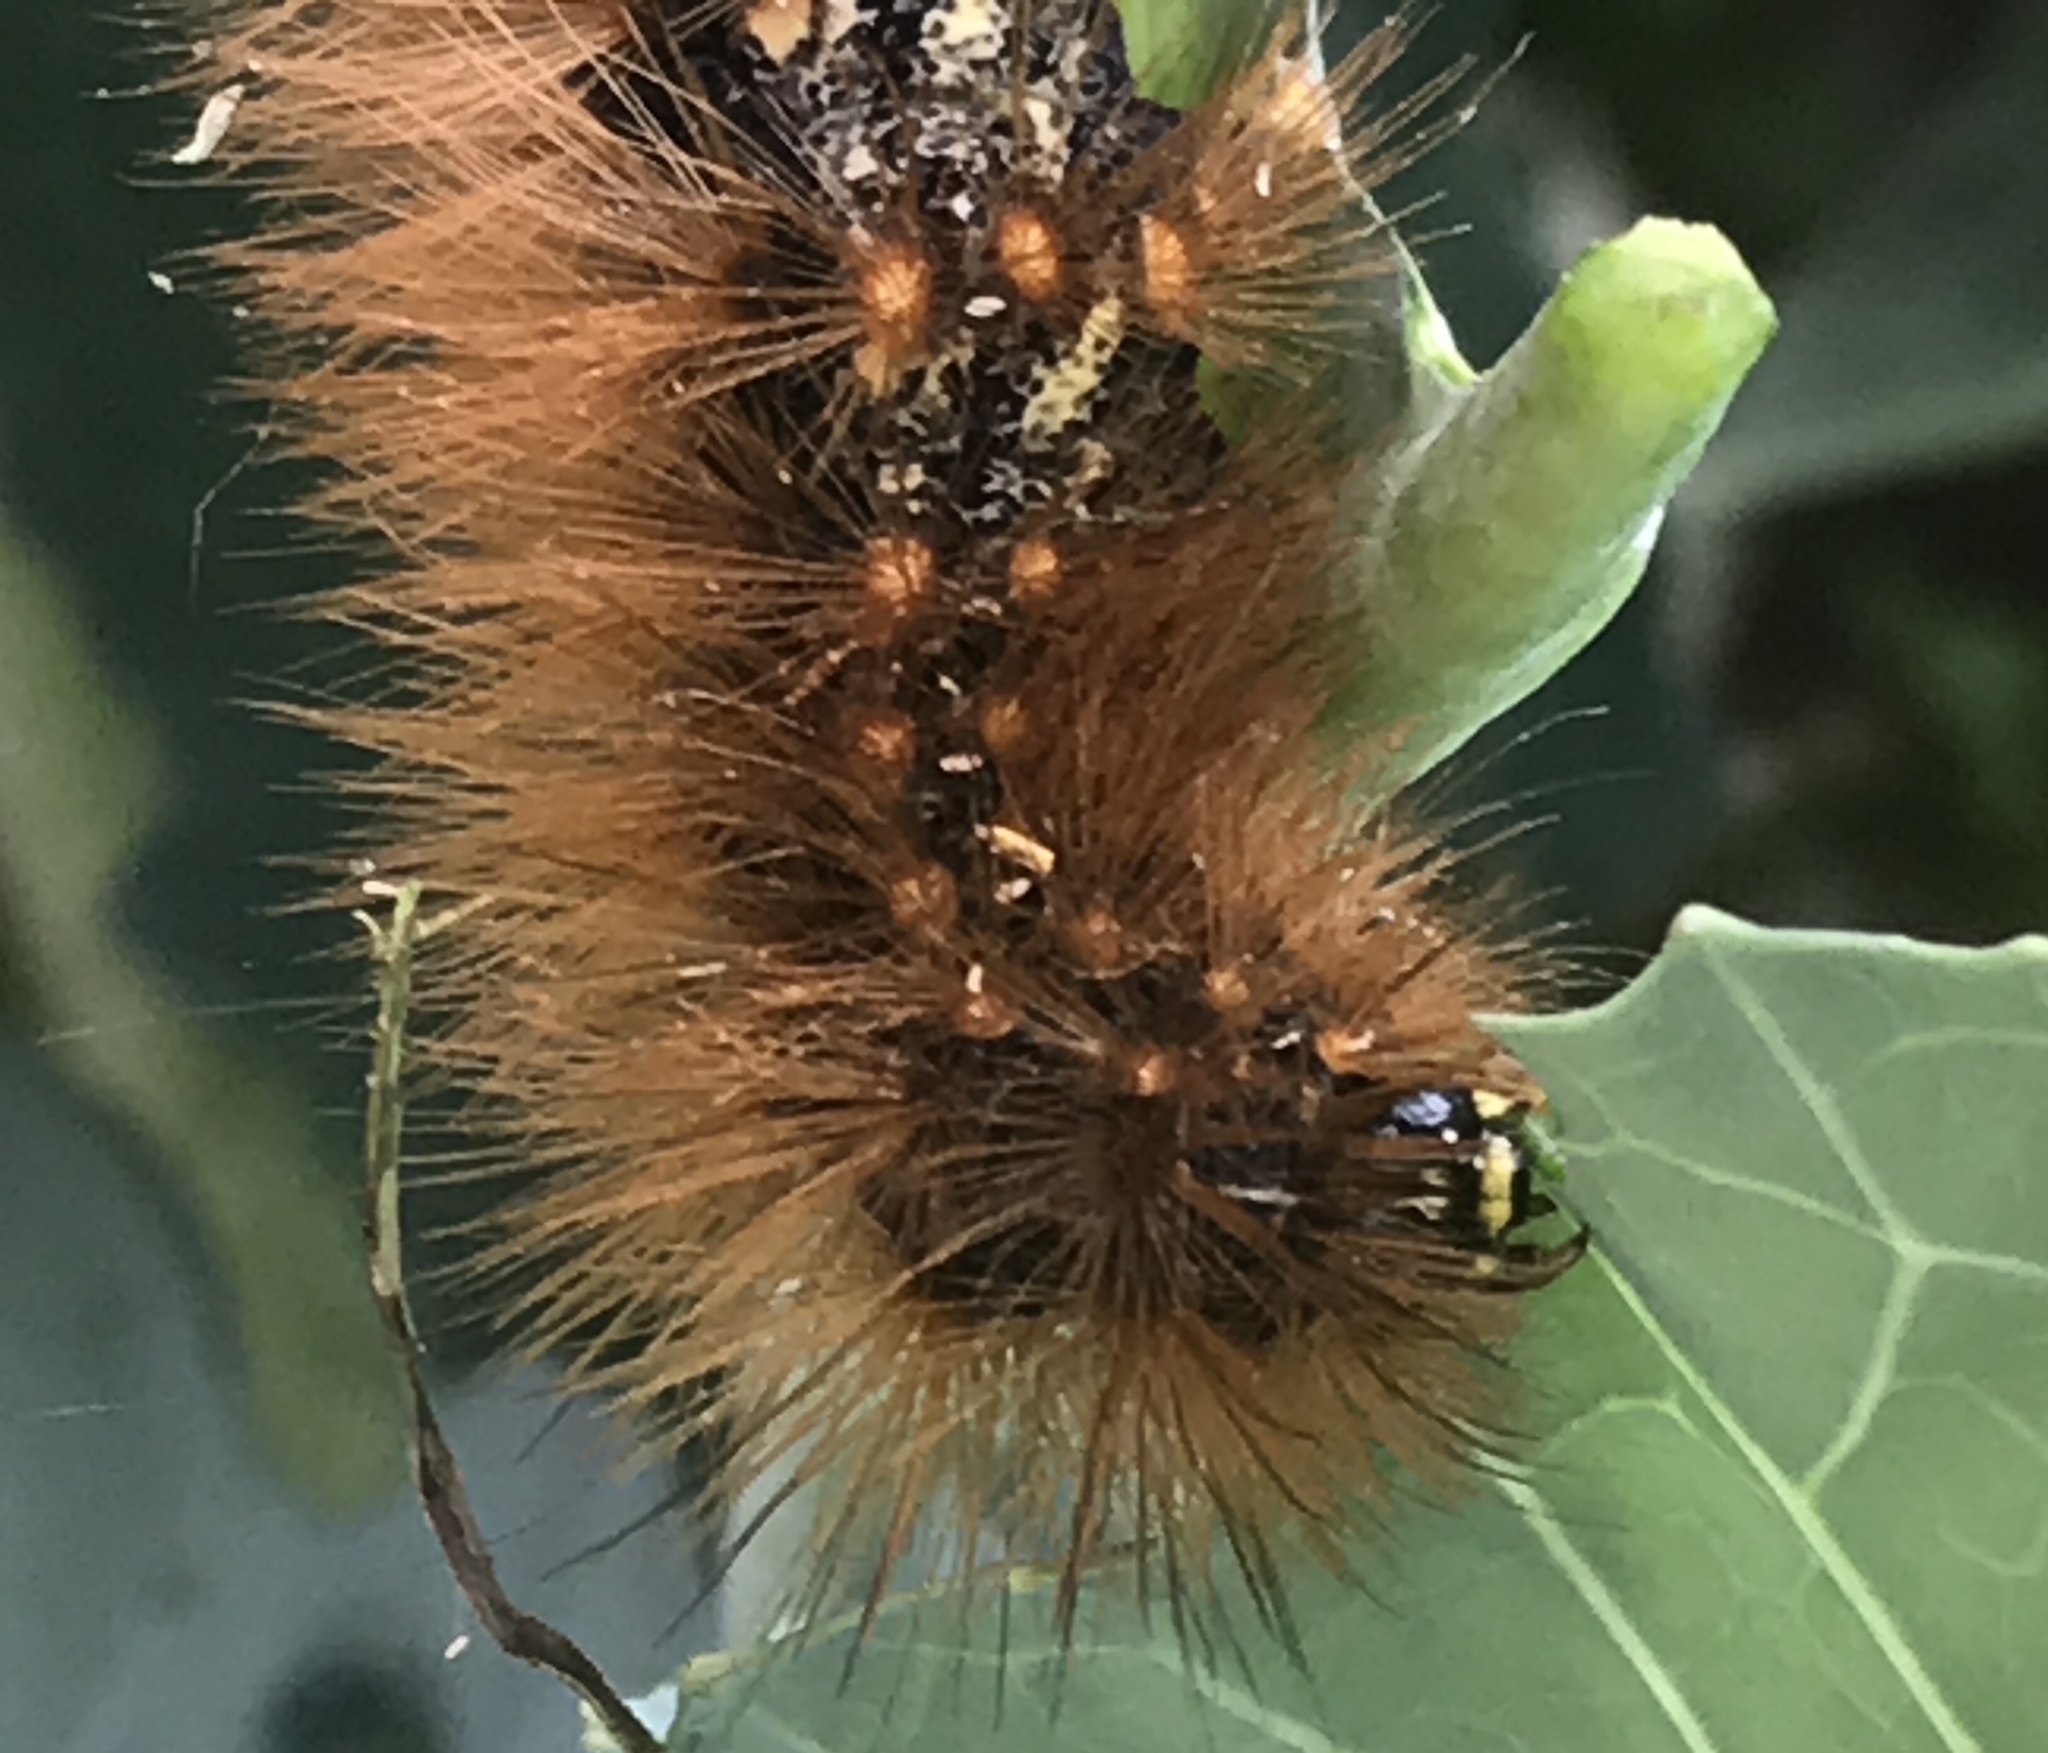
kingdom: Animalia
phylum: Arthropoda
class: Insecta
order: Lepidoptera
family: Erebidae
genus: Estigmene
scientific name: Estigmene acrea
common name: Salt marsh moth
